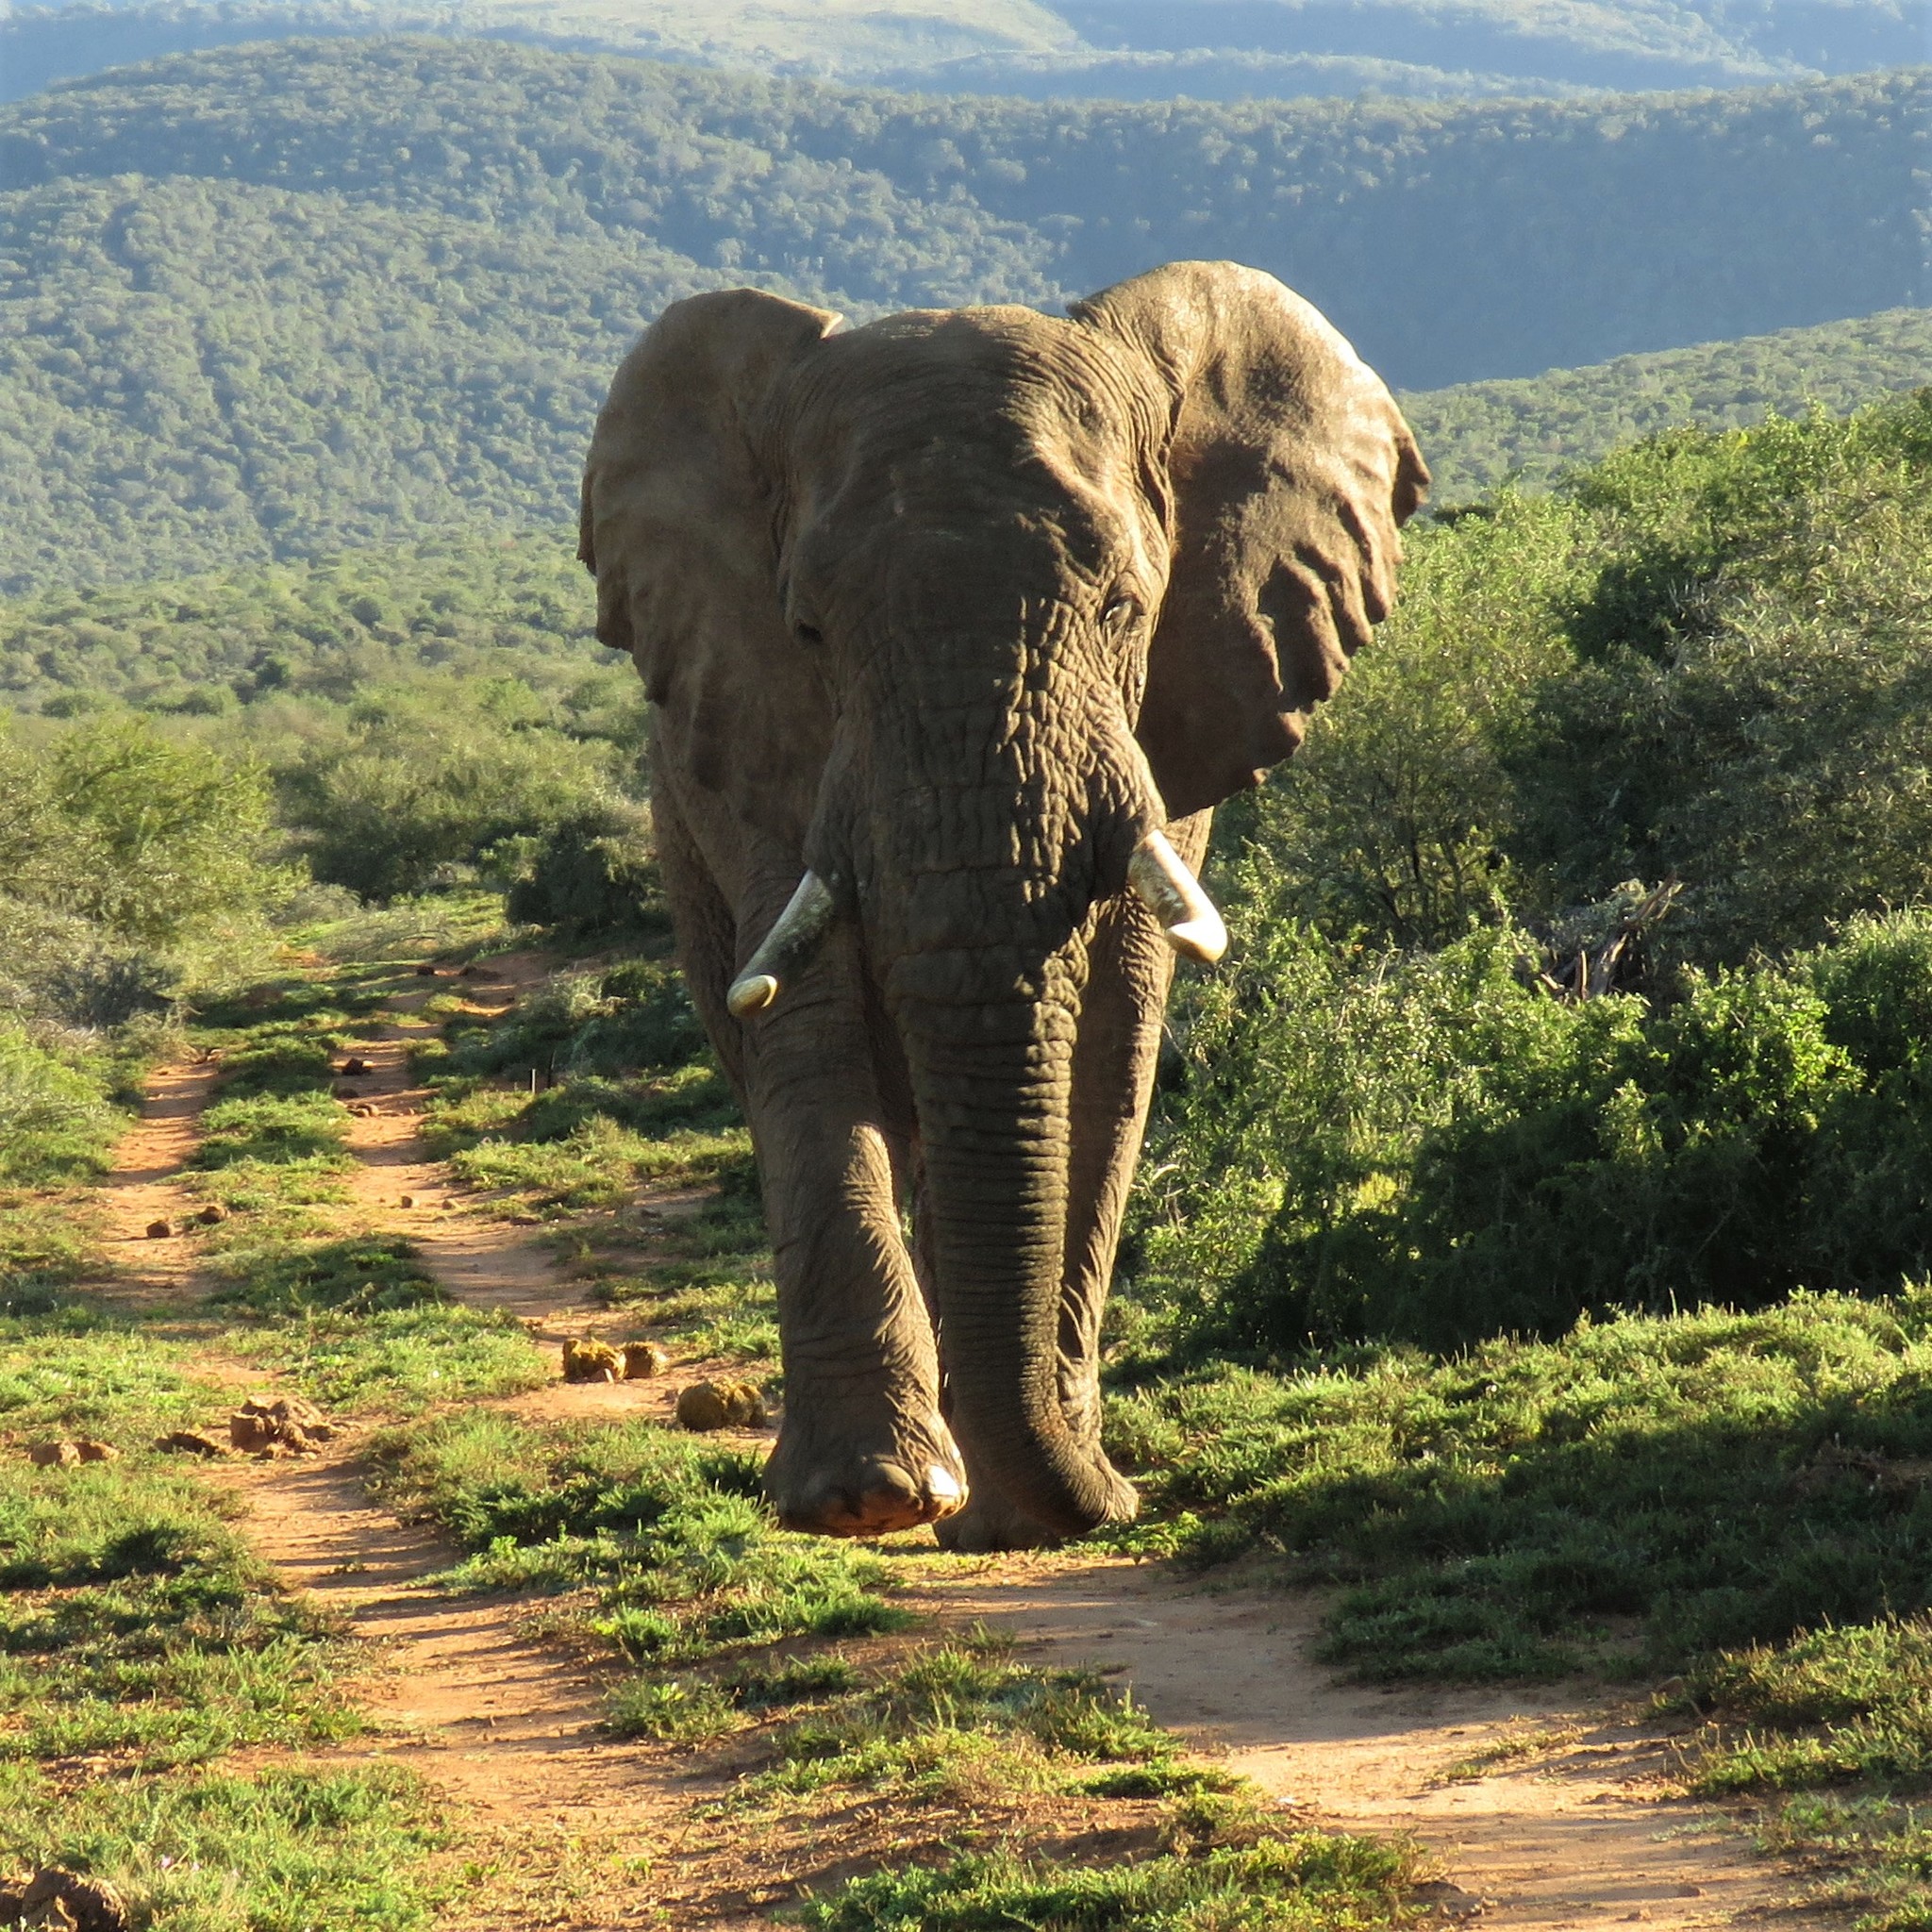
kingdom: Animalia
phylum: Chordata
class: Mammalia
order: Proboscidea
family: Elephantidae
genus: Loxodonta
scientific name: Loxodonta africana
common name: African elephant
